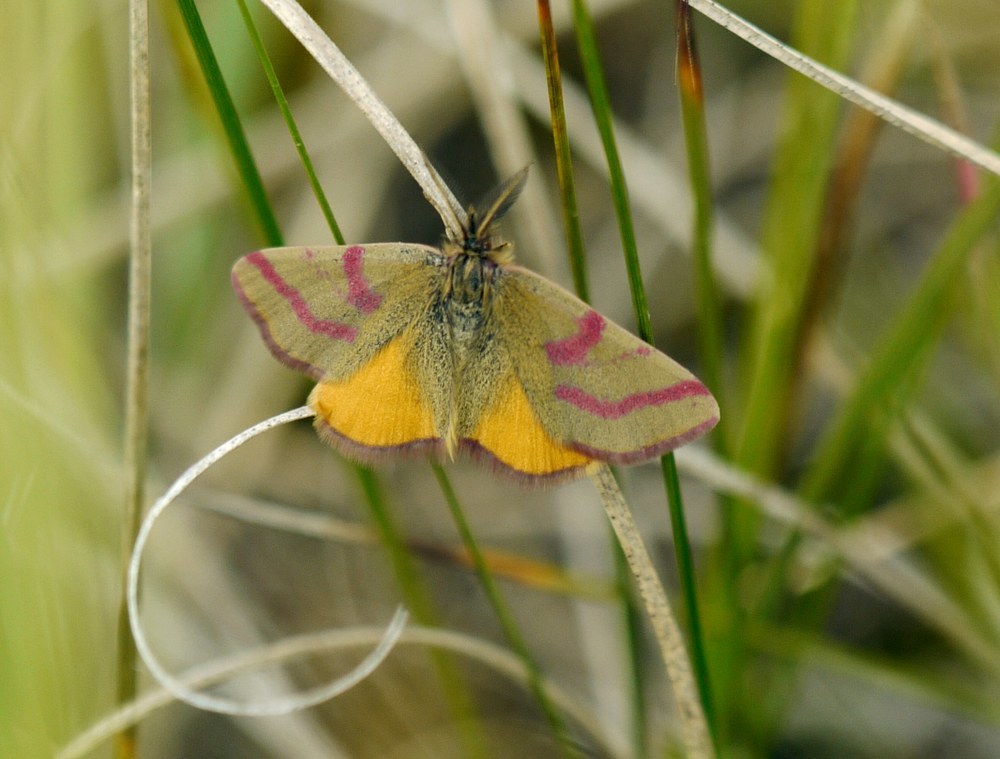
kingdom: Animalia
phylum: Arthropoda
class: Insecta
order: Lepidoptera
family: Geometridae
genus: Lythria
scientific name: Lythria purpuraria
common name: Purple-barred yellow
